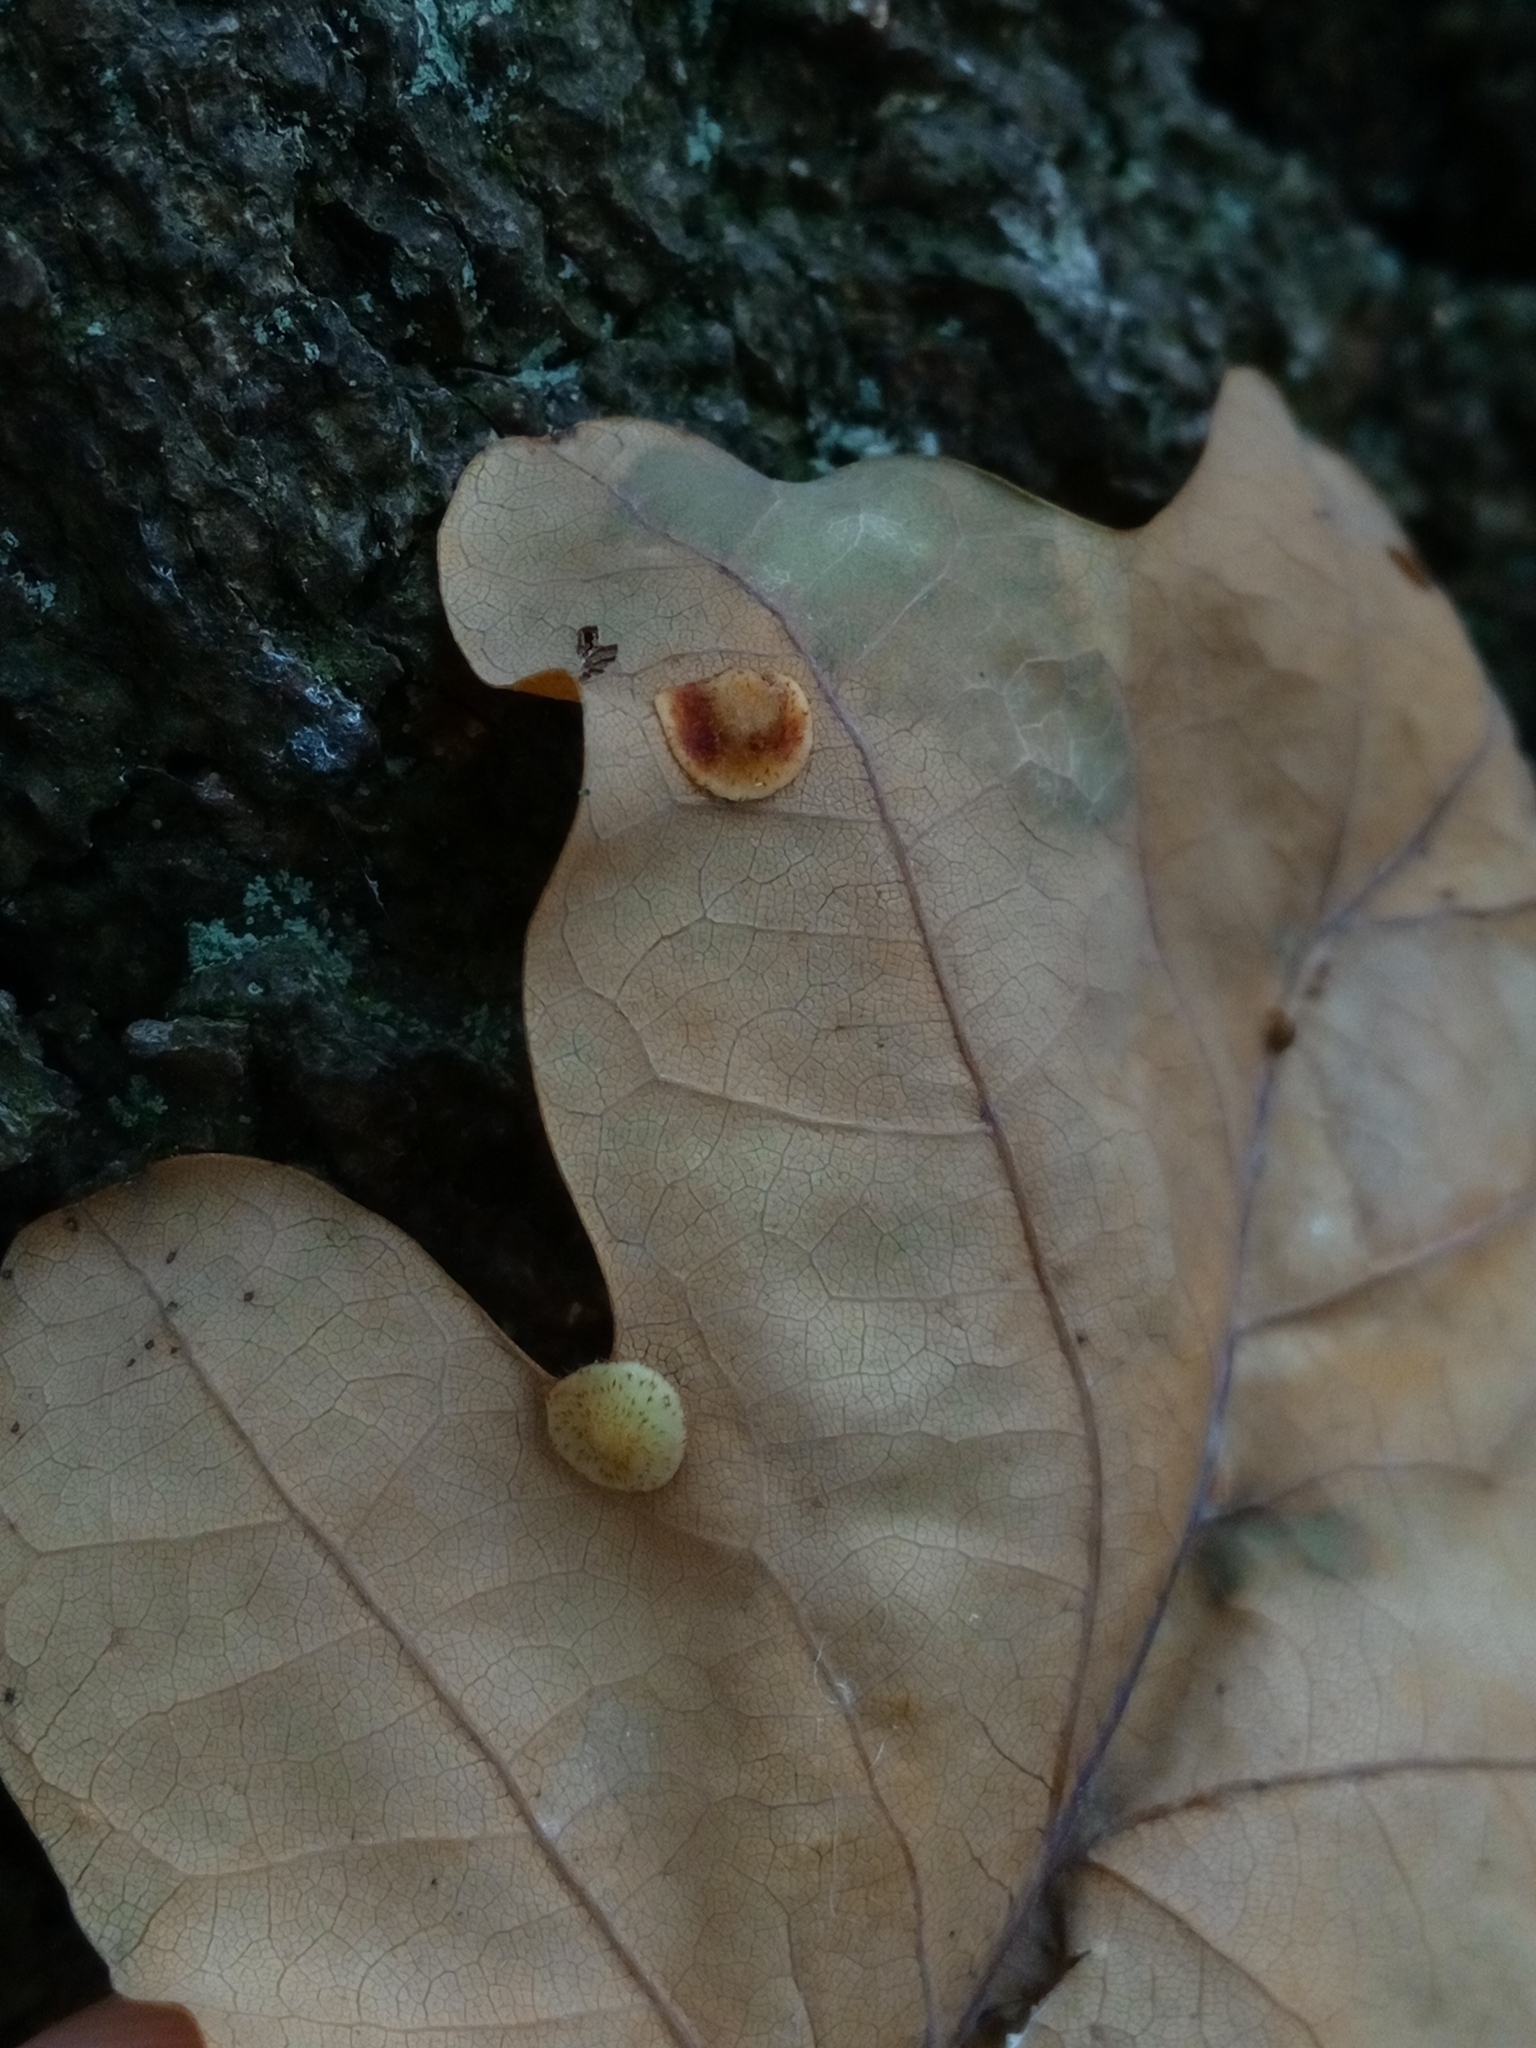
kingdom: Animalia
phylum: Arthropoda
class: Insecta
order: Hymenoptera
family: Cynipidae
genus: Neuroterus
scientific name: Neuroterus quercusbaccarum
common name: Common spangle gall
